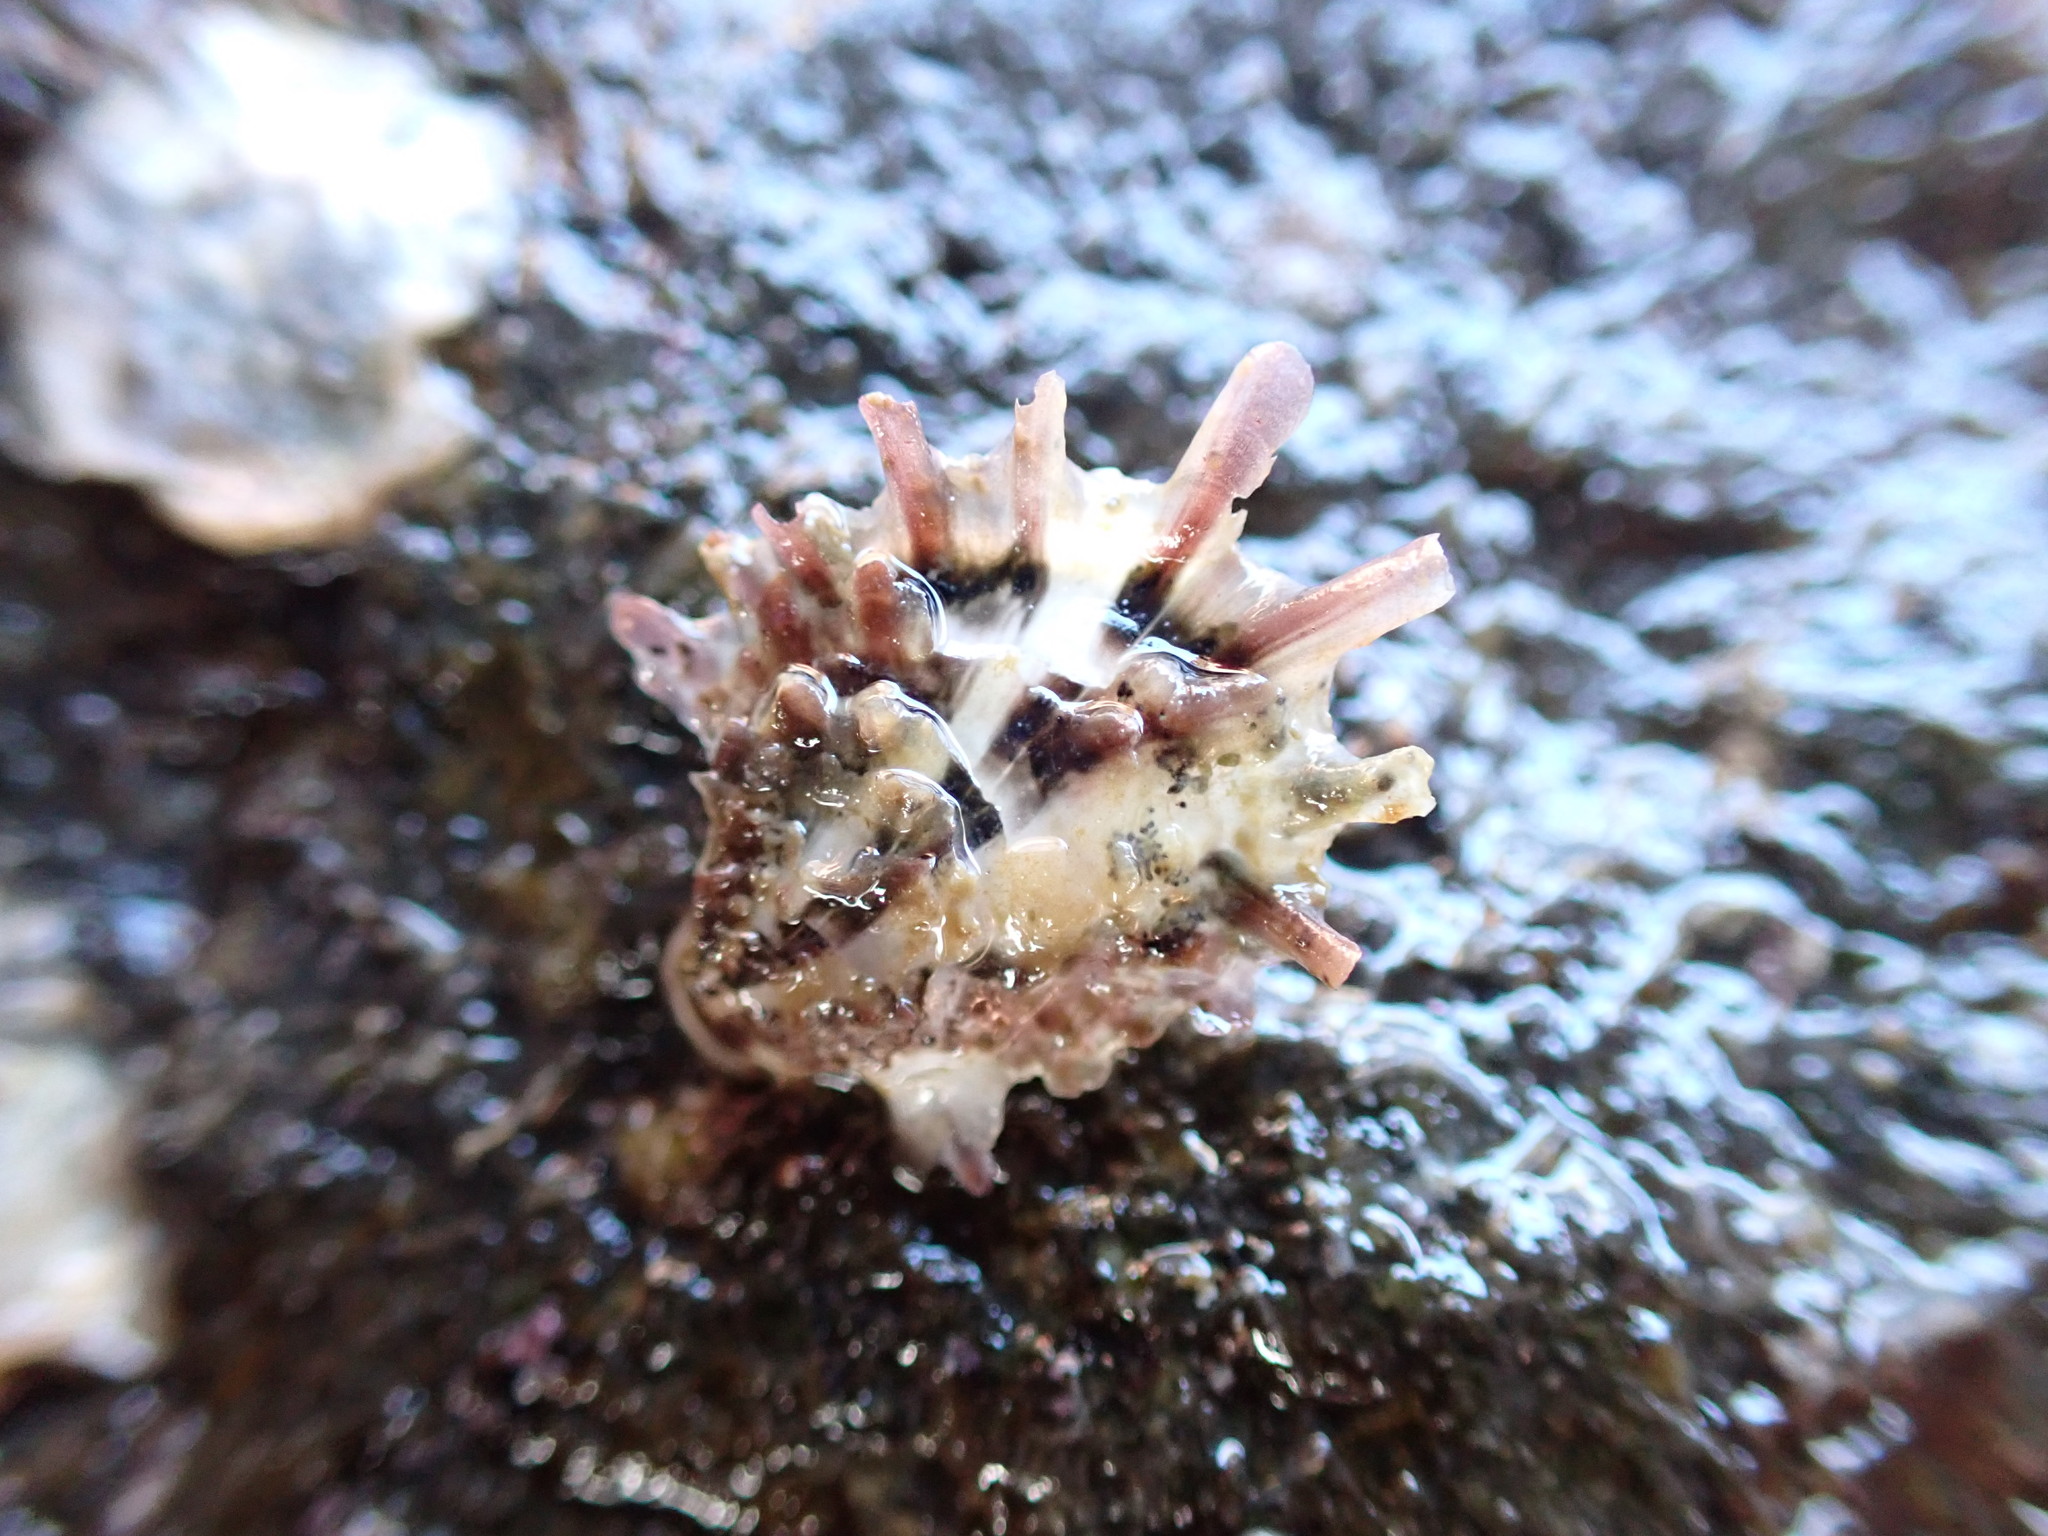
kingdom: Animalia
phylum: Mollusca
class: Bivalvia
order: Ostreida
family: Ostreidae
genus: Magallana
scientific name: Magallana gigas
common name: Pacific oyster
